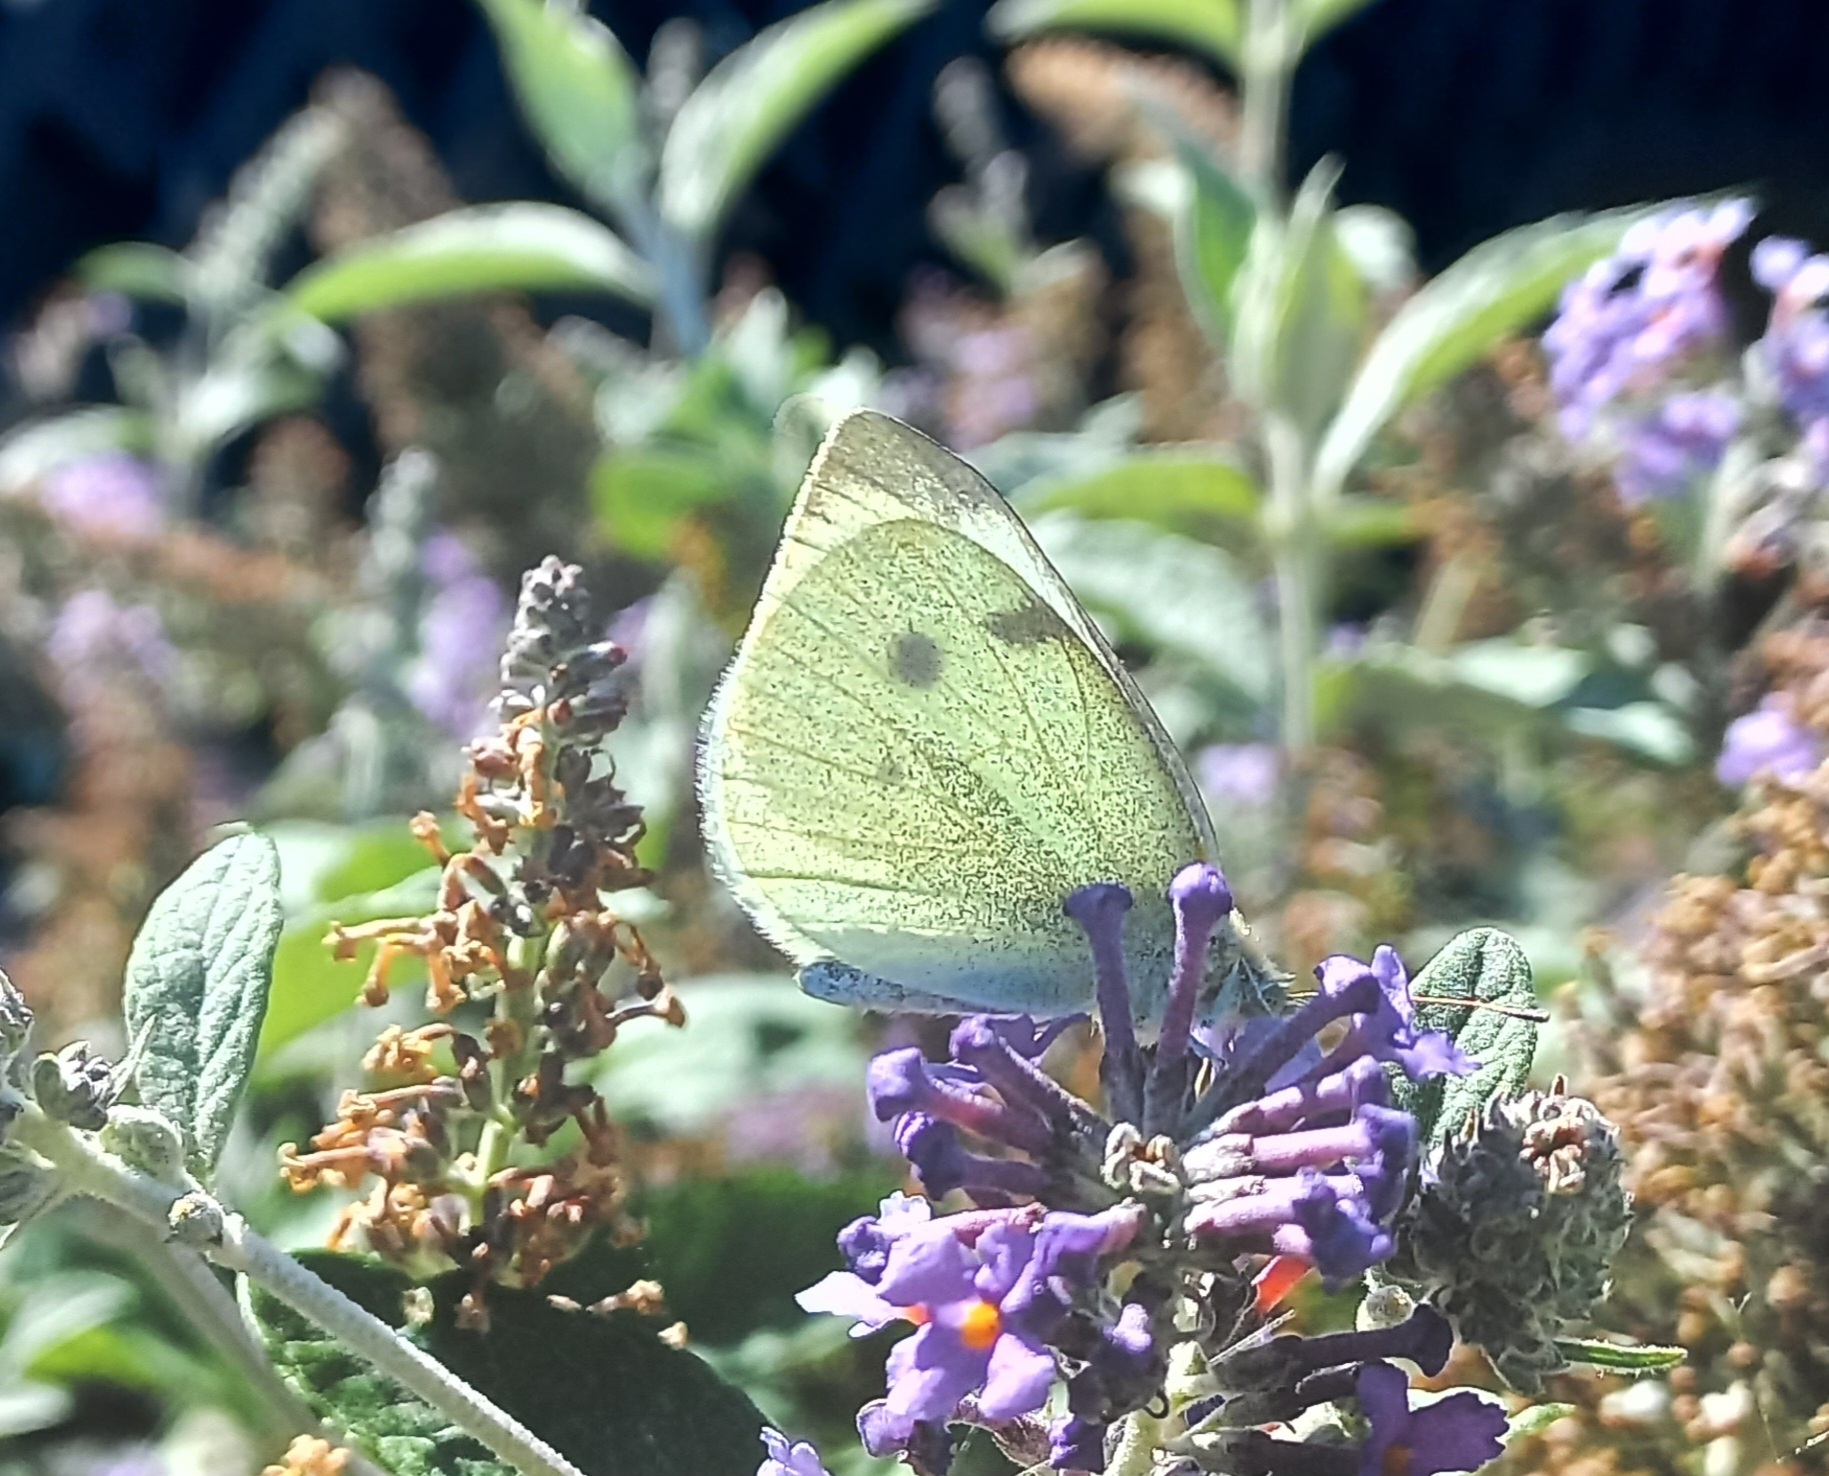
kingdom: Animalia
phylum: Arthropoda
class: Insecta
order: Lepidoptera
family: Pieridae
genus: Pieris
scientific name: Pieris rapae
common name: Small white
